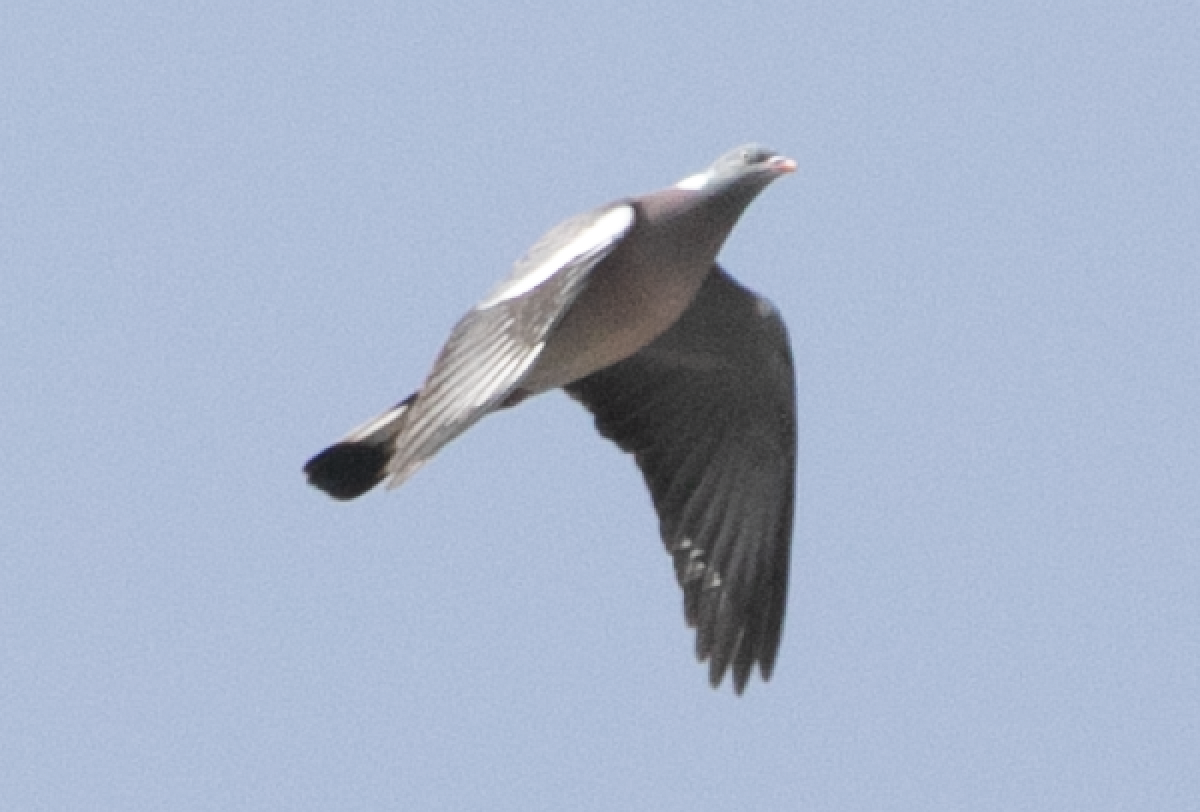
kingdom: Animalia
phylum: Chordata
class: Aves
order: Columbiformes
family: Columbidae
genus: Columba
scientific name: Columba palumbus
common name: Common wood pigeon
